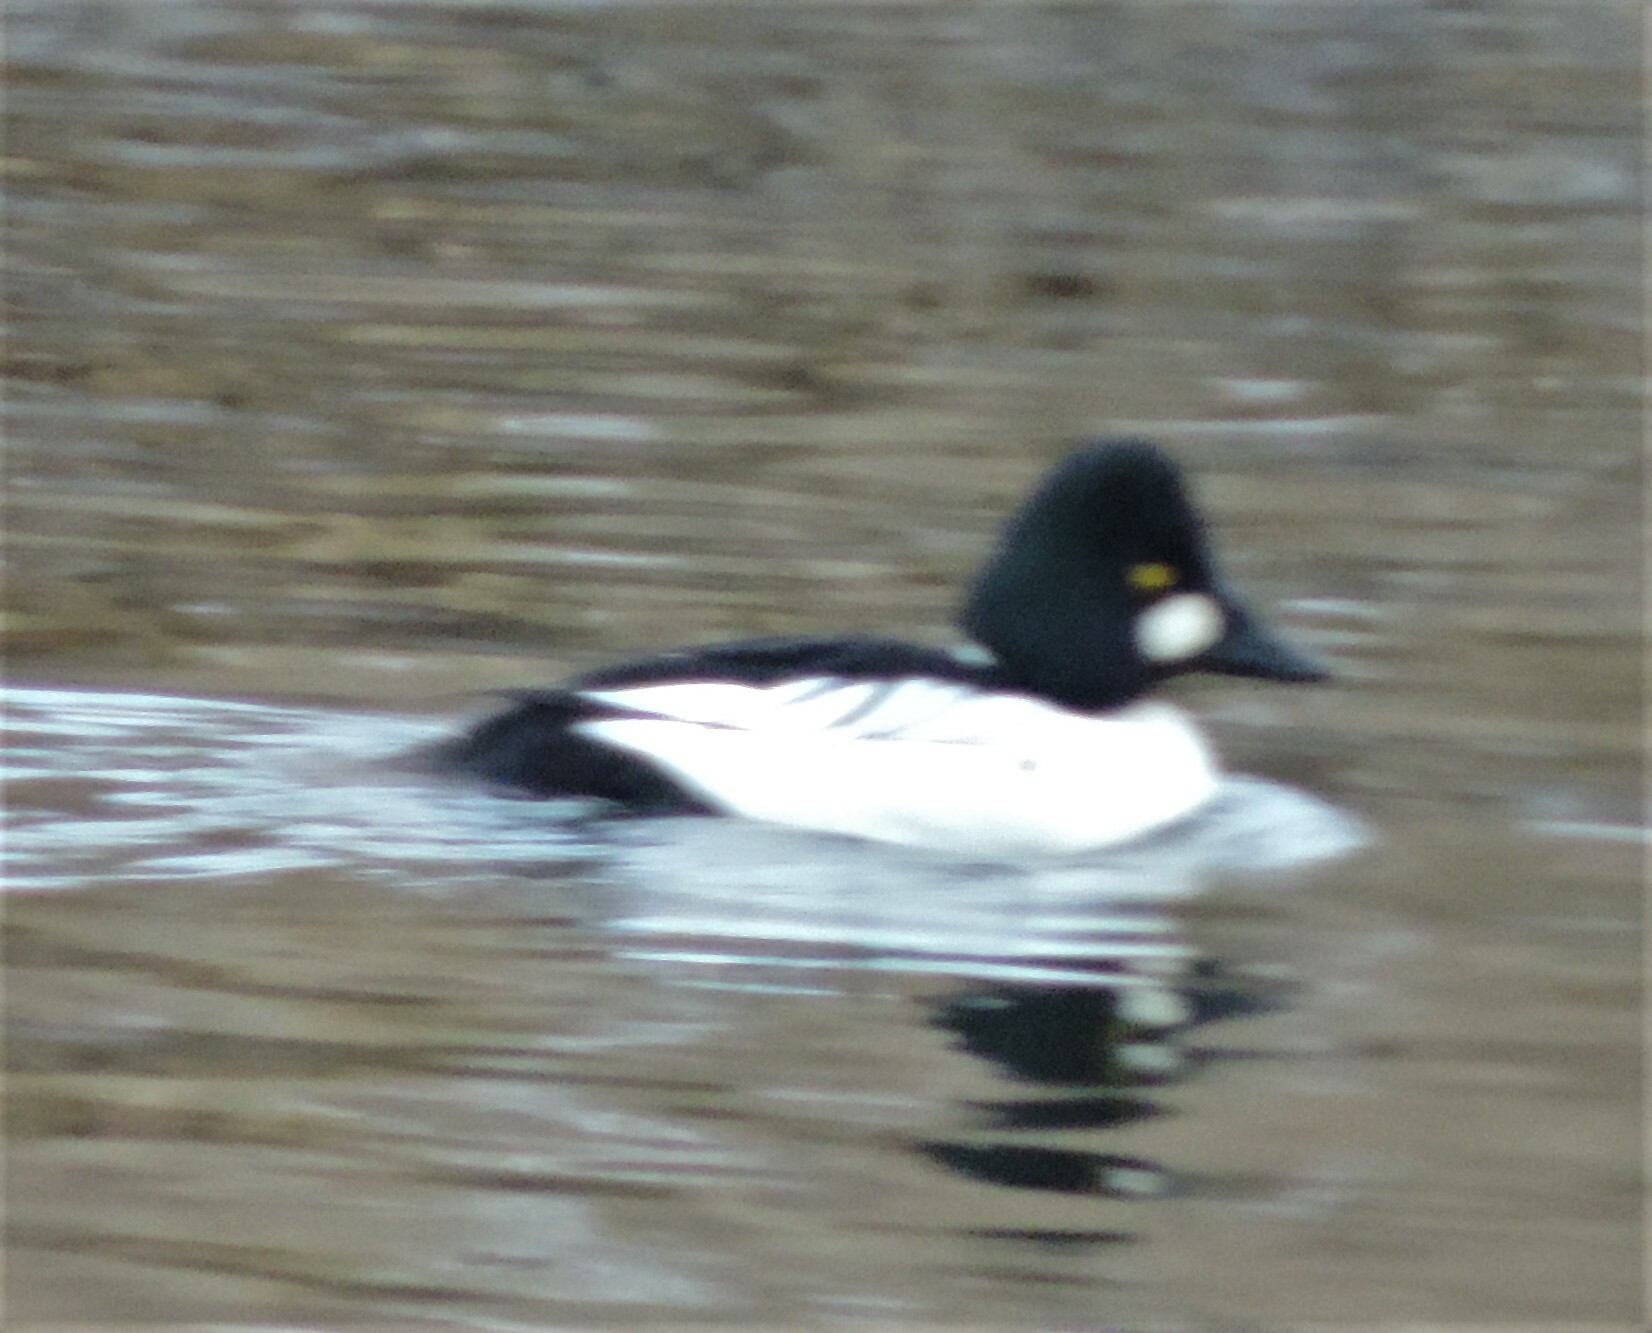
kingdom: Animalia
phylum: Chordata
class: Aves
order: Anseriformes
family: Anatidae
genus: Bucephala
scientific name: Bucephala clangula
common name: Common goldeneye
